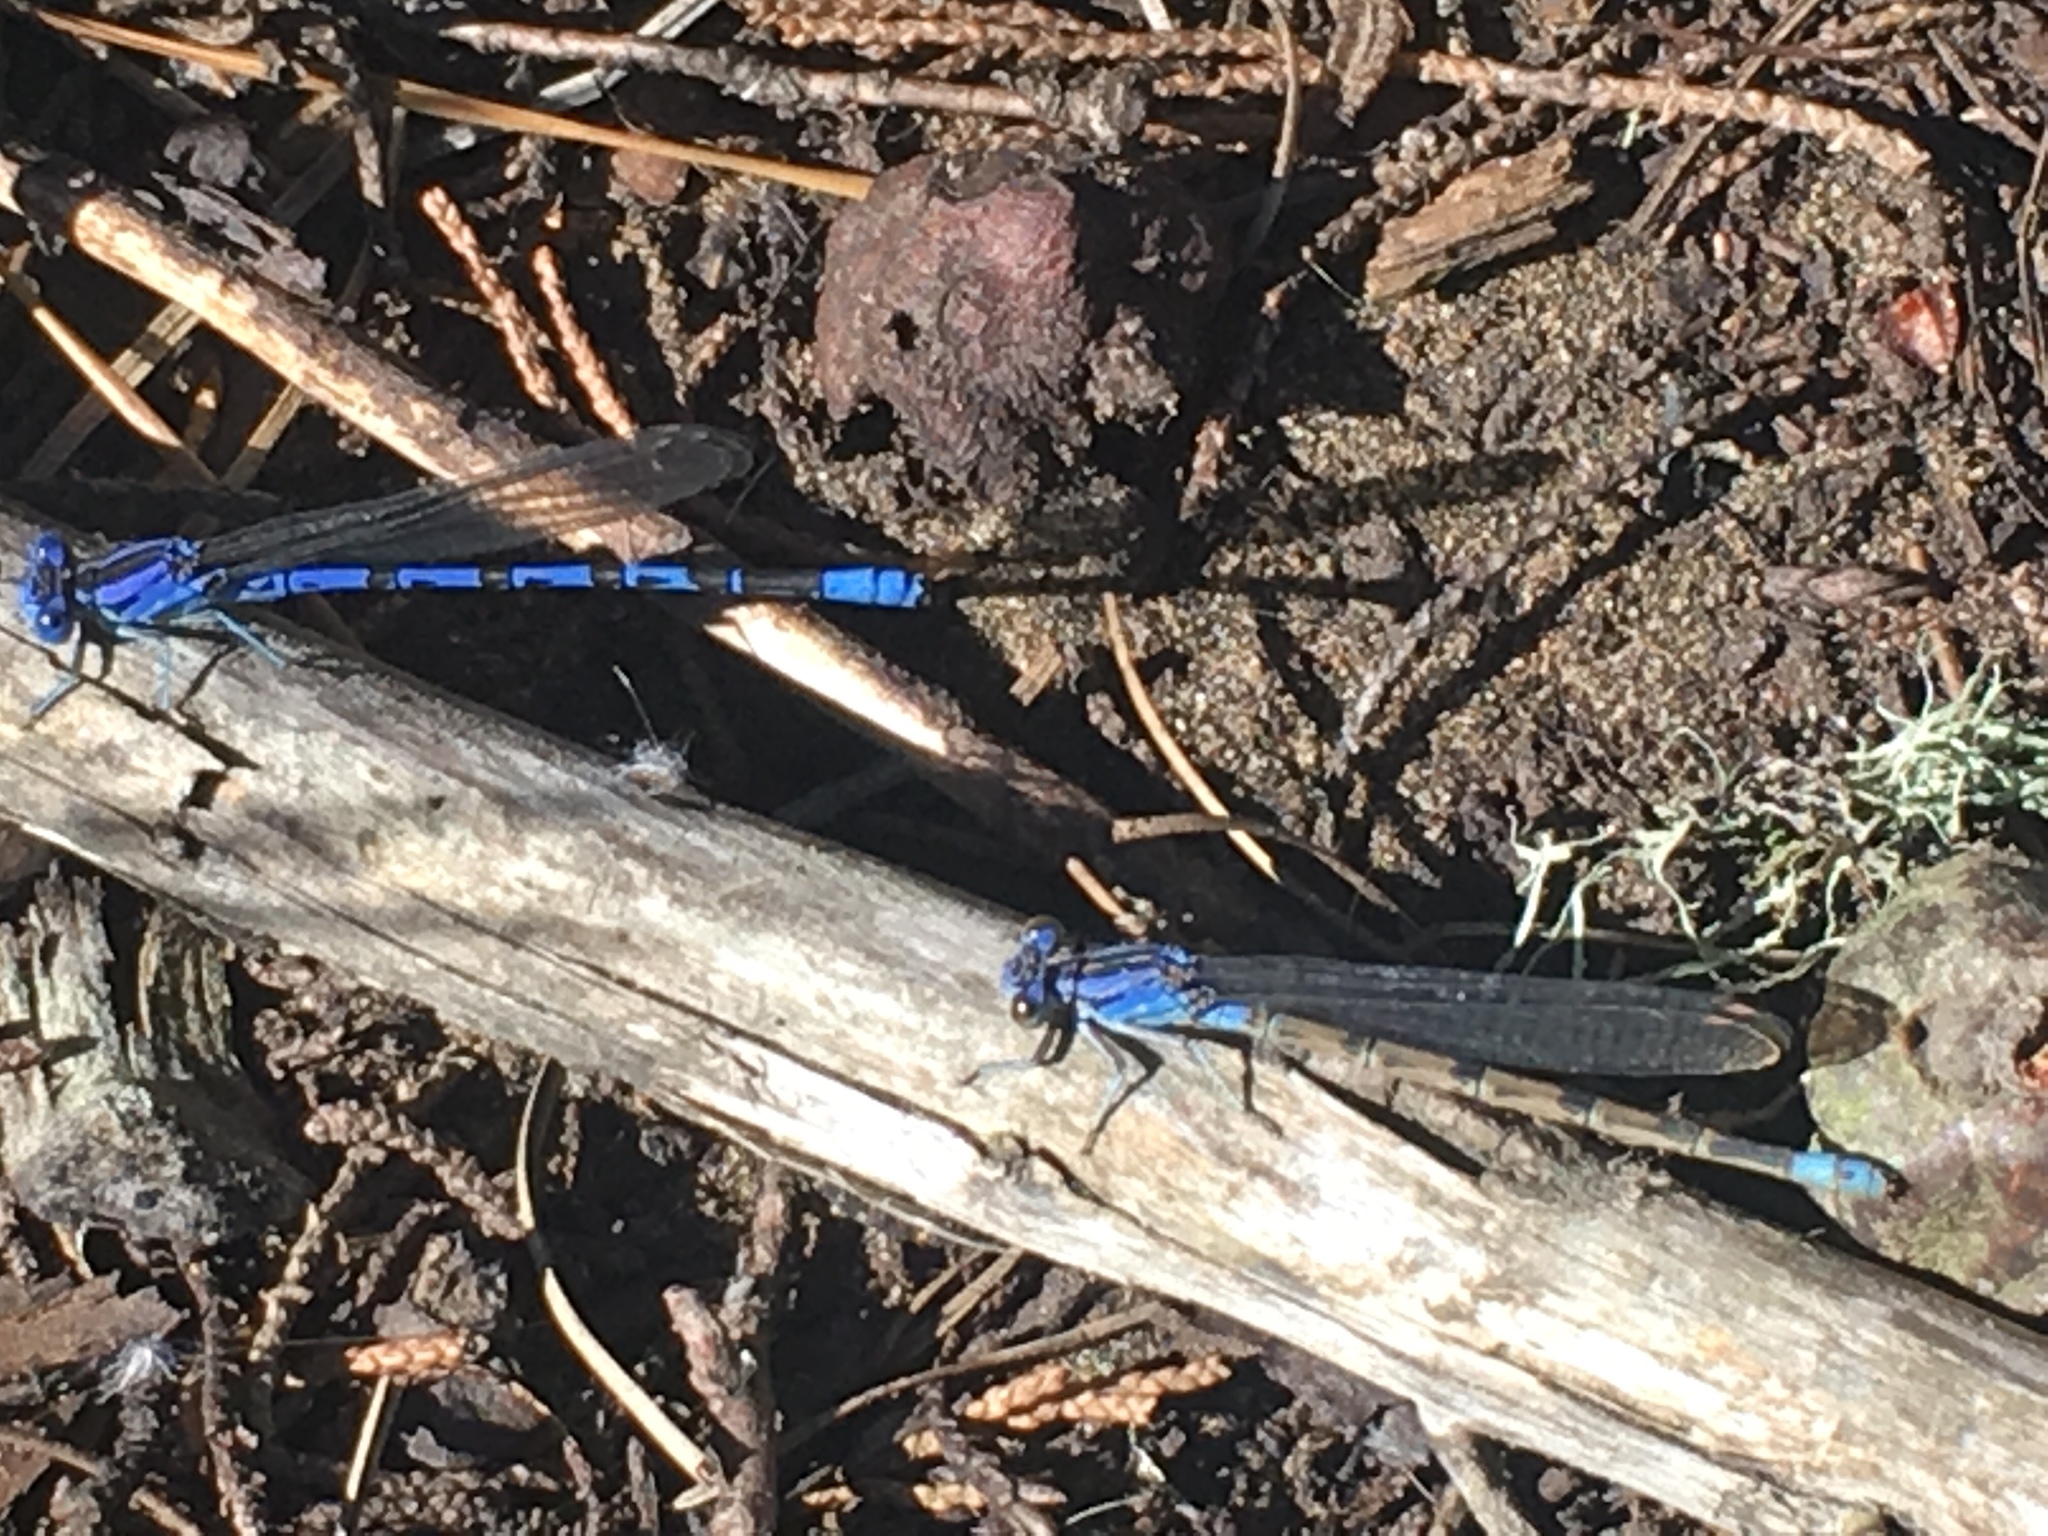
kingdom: Animalia
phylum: Arthropoda
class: Insecta
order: Odonata
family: Coenagrionidae
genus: Argia
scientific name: Argia vivida
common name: Vivid dancer
